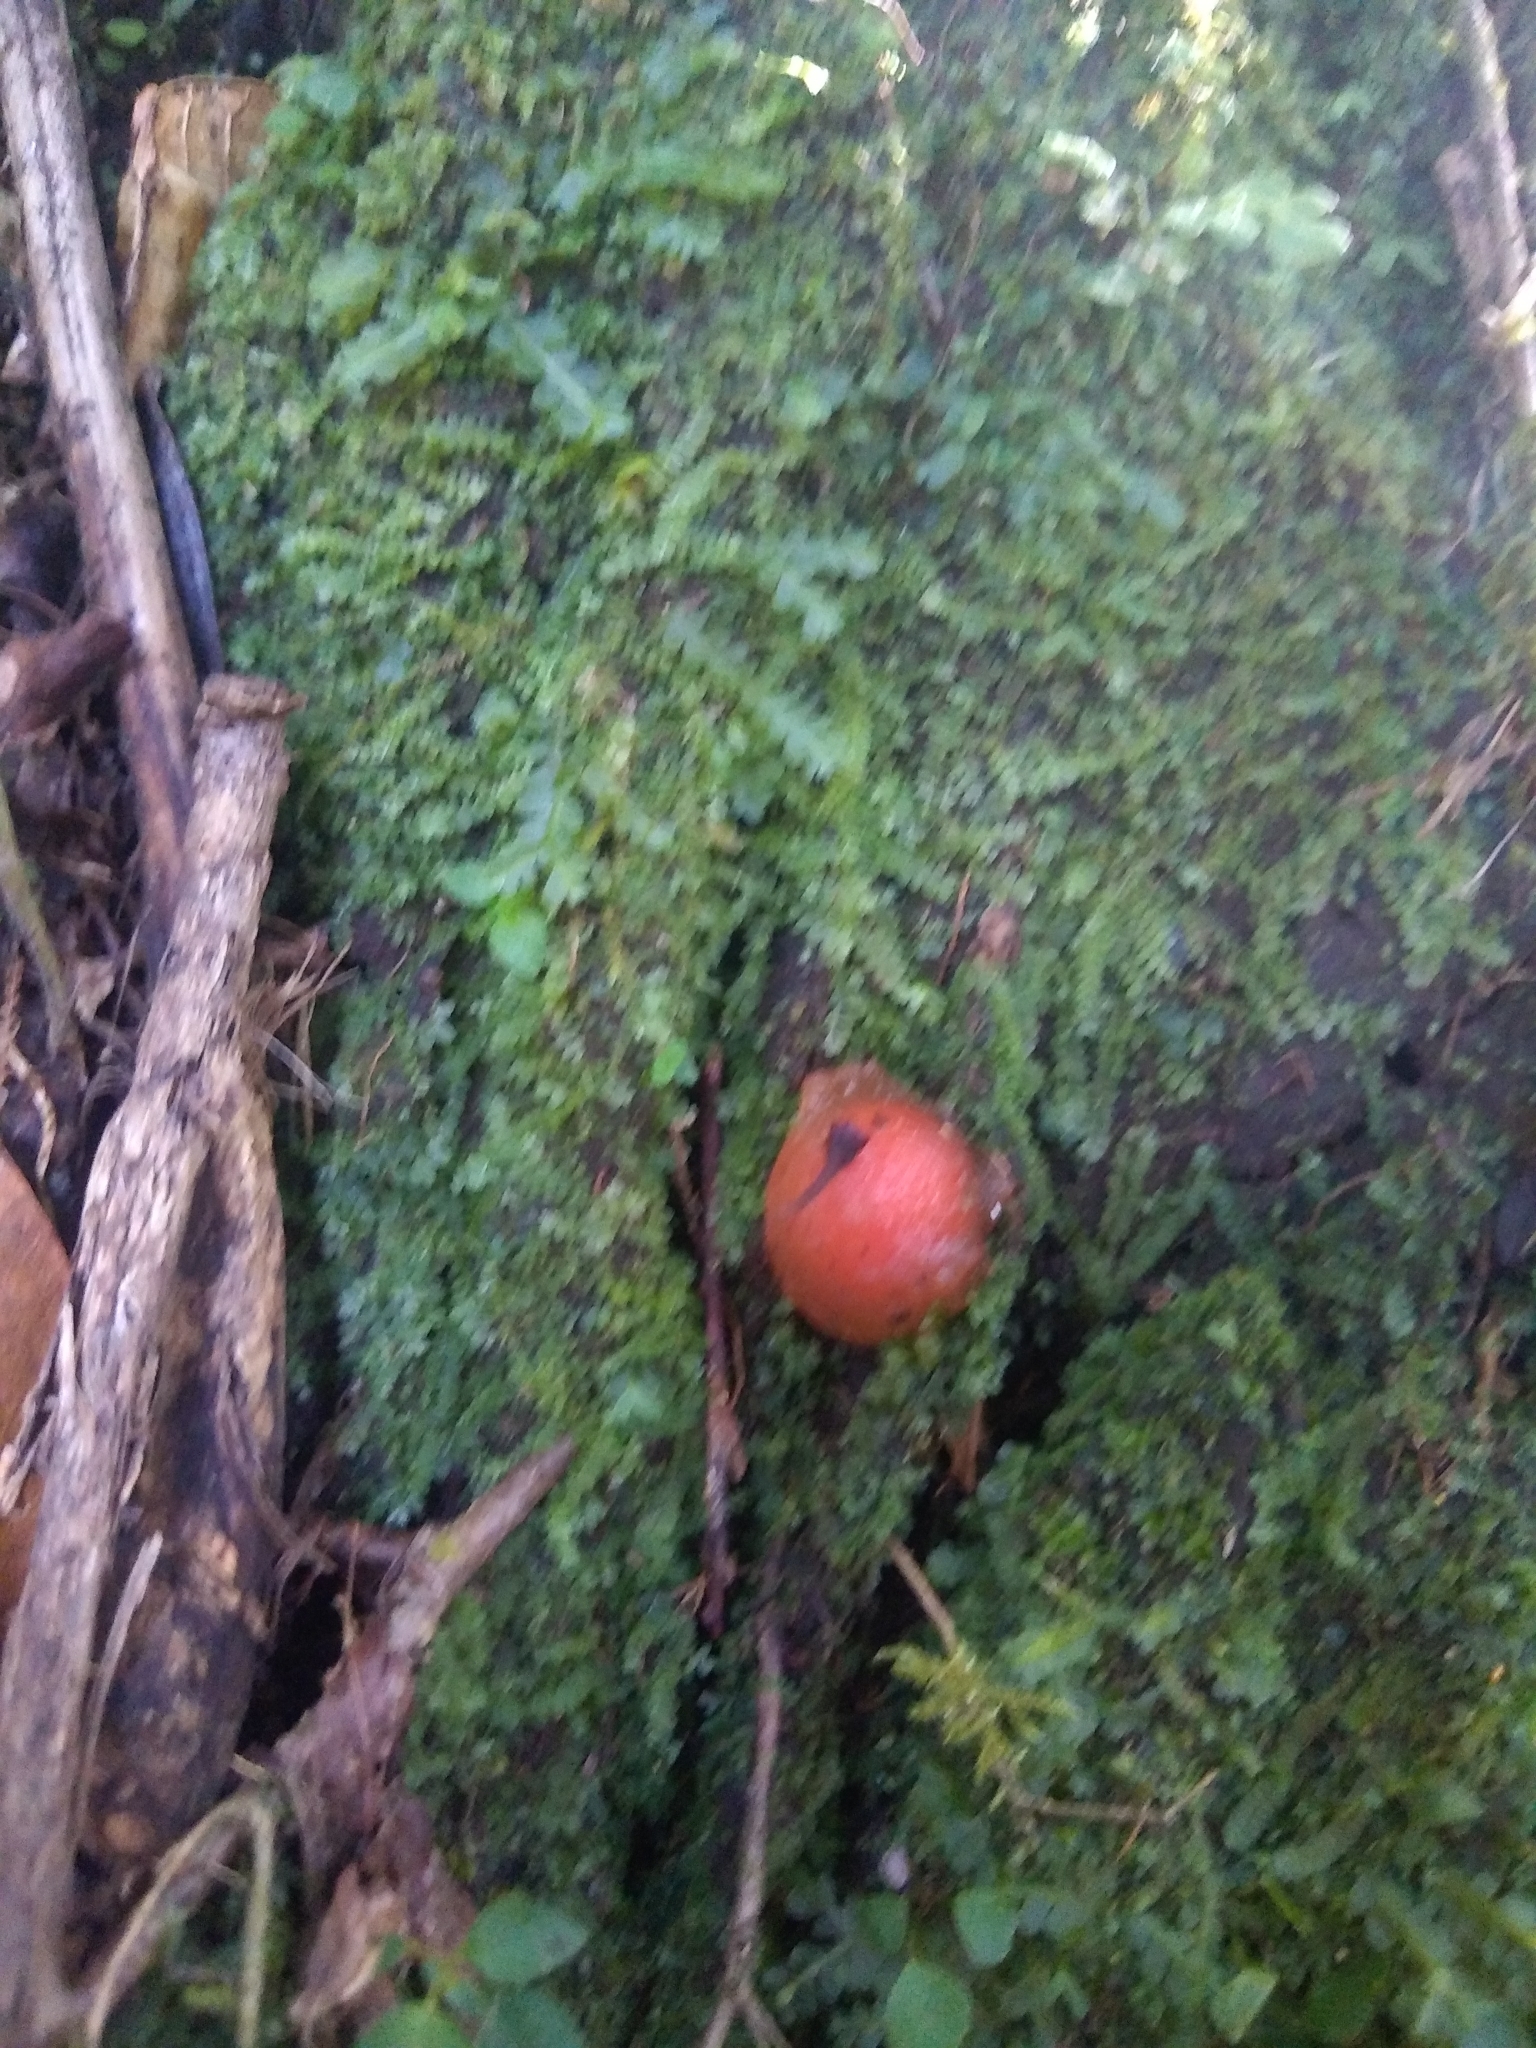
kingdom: Fungi
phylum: Basidiomycota
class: Agaricomycetes
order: Boletales
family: Calostomataceae
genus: Calostoma
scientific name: Calostoma cinnabarinum
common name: Stalked puffball-in-aspic
